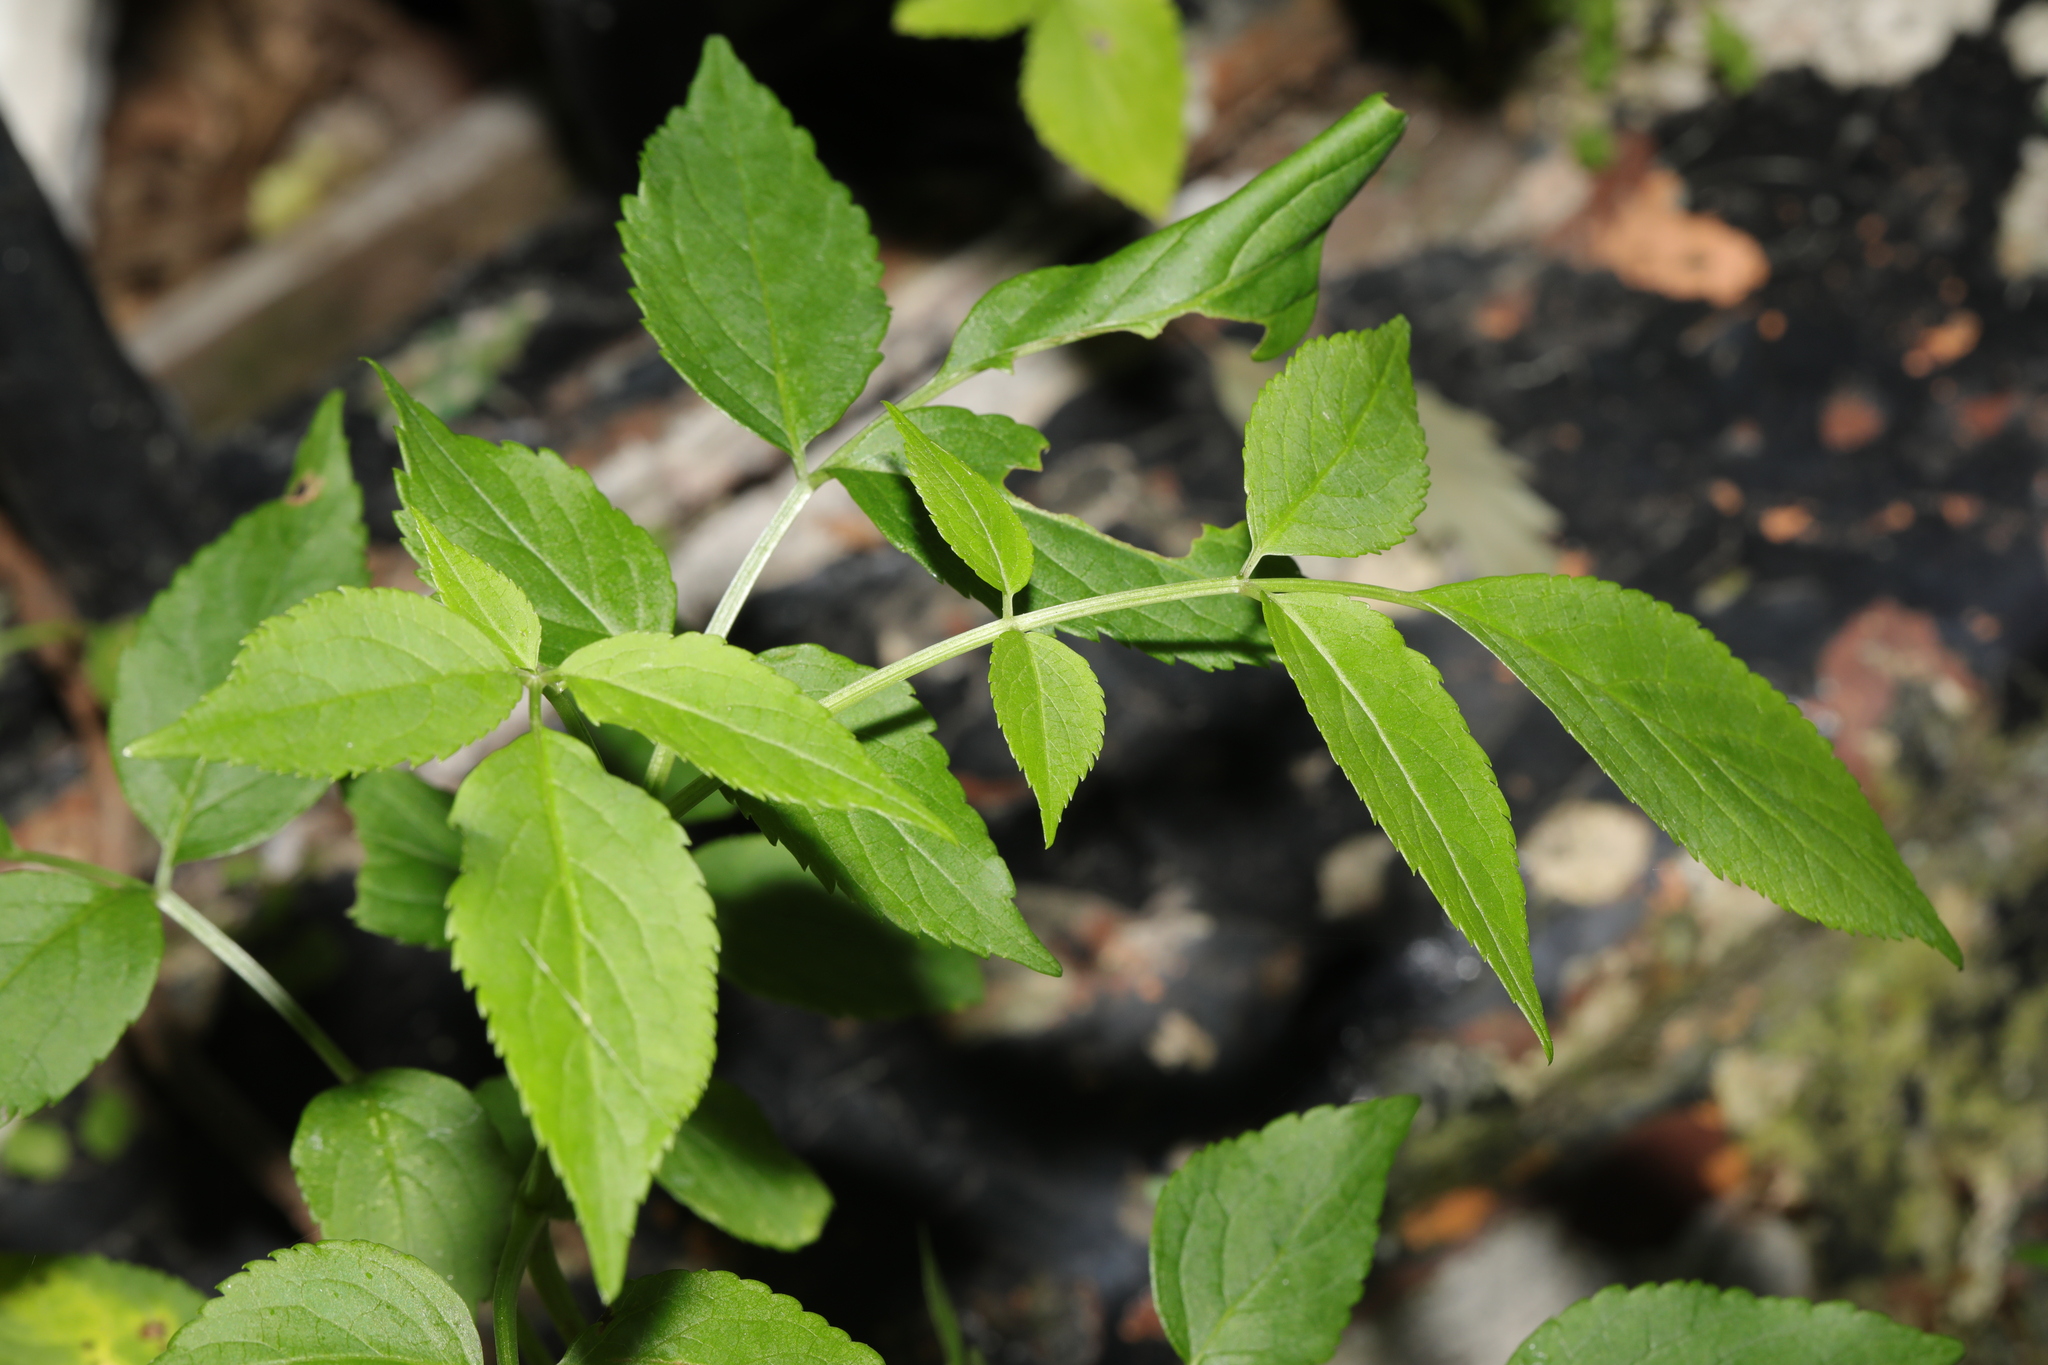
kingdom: Plantae
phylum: Tracheophyta
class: Magnoliopsida
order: Dipsacales
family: Viburnaceae
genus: Sambucus
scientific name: Sambucus nigra
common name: Elder
